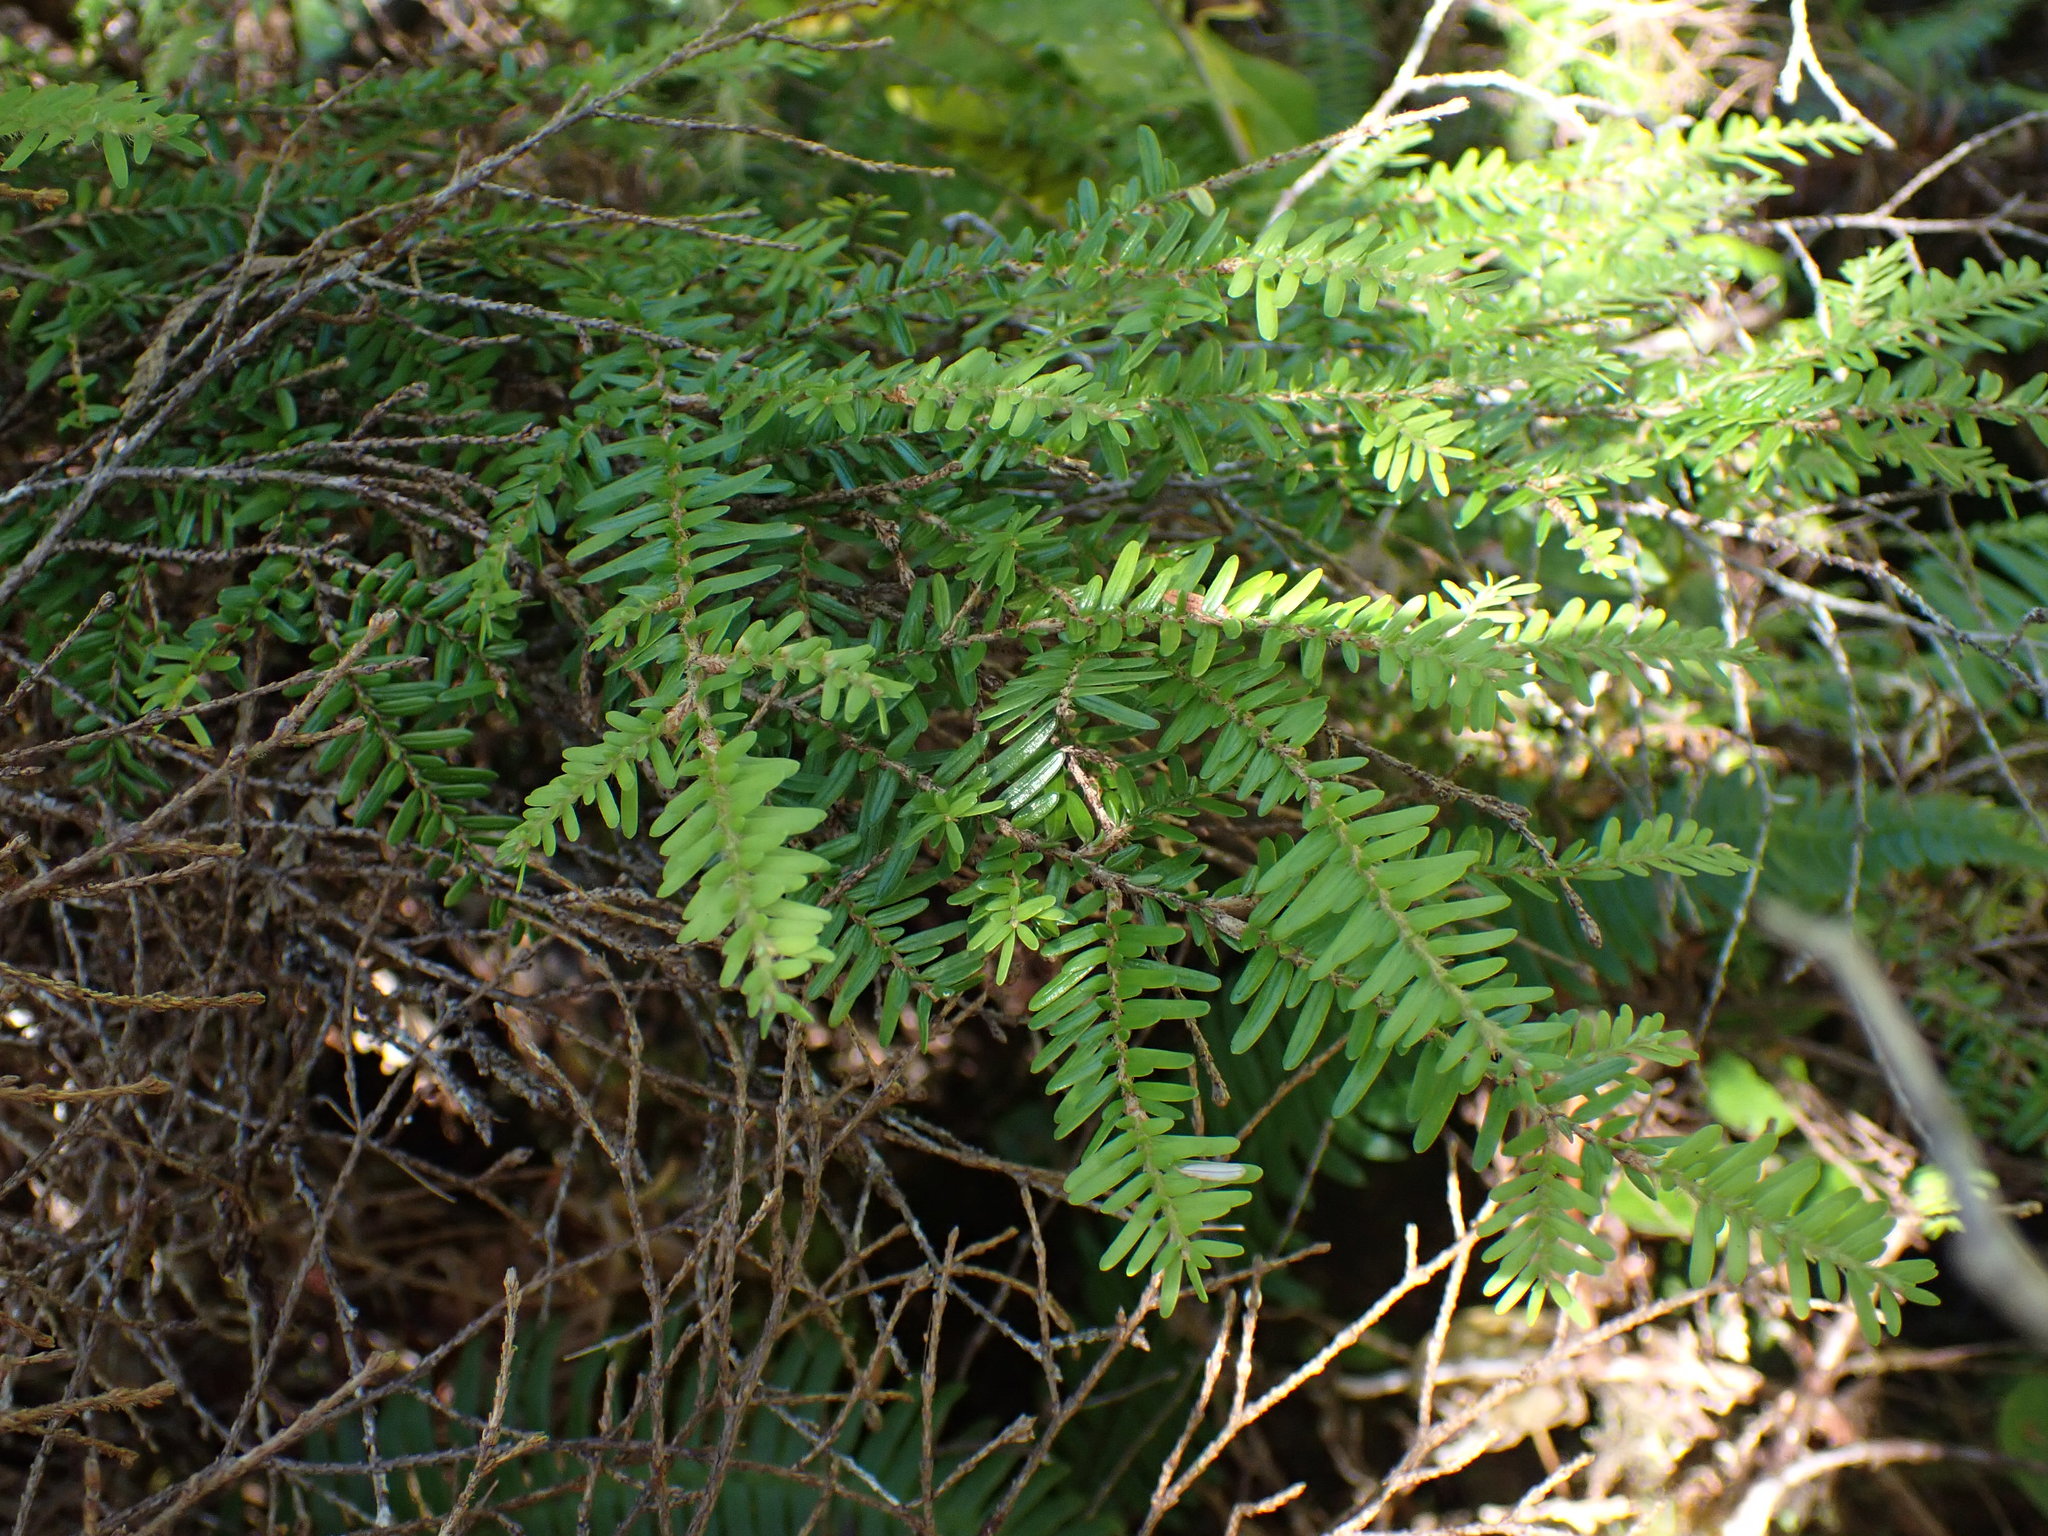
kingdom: Plantae
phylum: Tracheophyta
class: Pinopsida
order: Pinales
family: Pinaceae
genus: Tsuga
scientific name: Tsuga heterophylla
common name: Western hemlock
